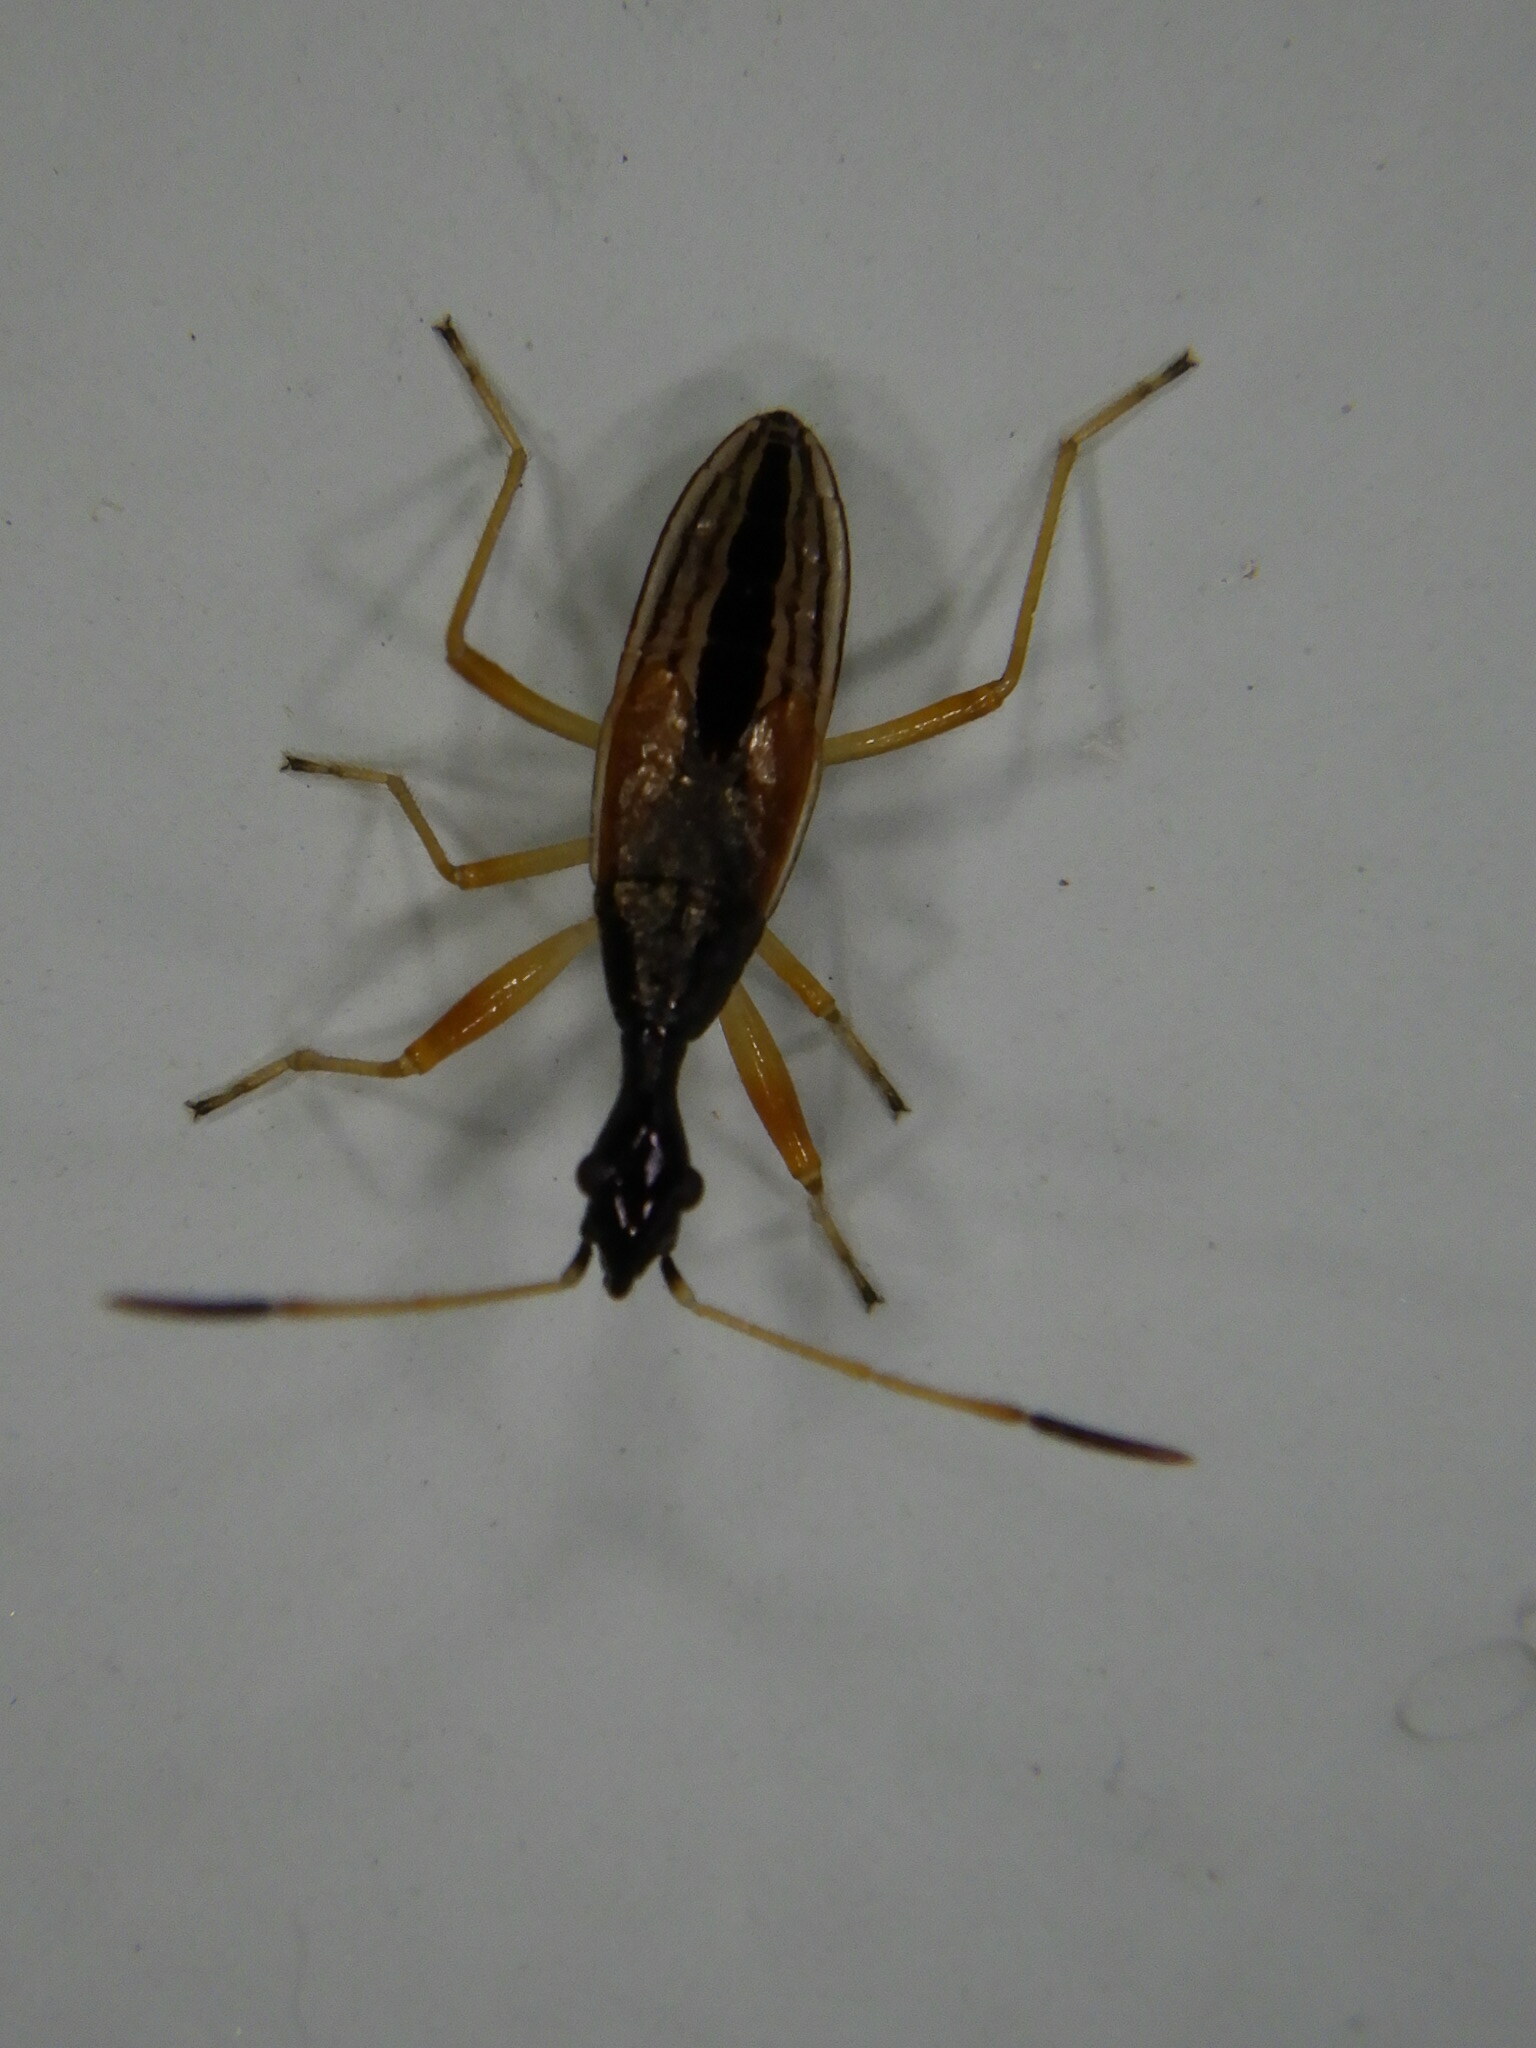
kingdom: Animalia
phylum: Arthropoda
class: Insecta
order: Hemiptera
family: Rhyparochromidae
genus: Myodocha
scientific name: Myodocha serripes
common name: Long-necked seed bug
